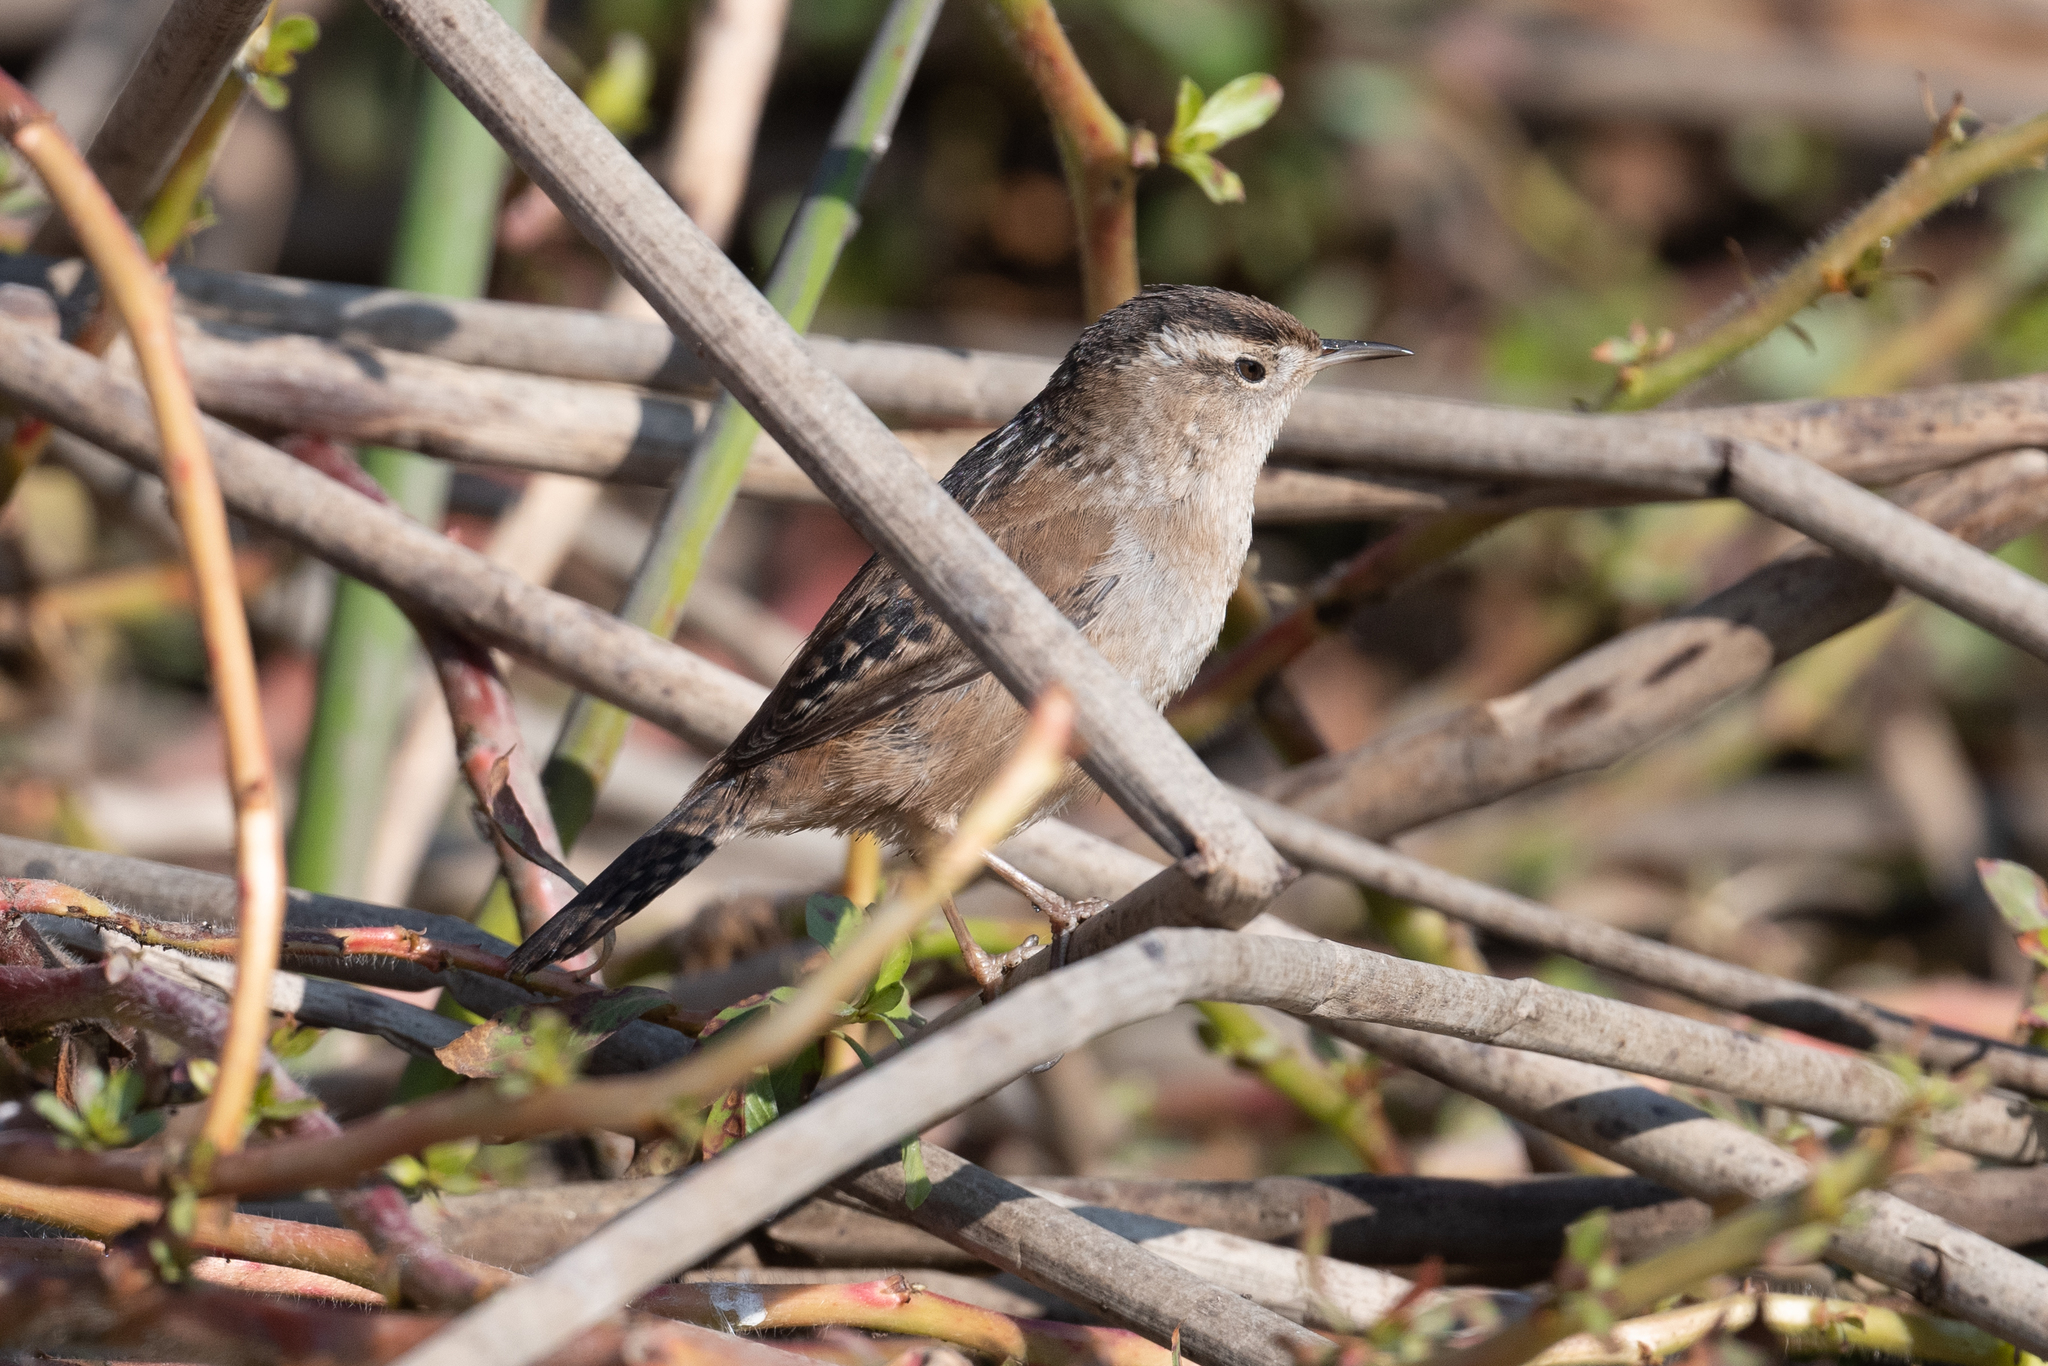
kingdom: Animalia
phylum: Chordata
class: Aves
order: Passeriformes
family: Troglodytidae
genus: Cistothorus
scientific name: Cistothorus palustris
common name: Marsh wren
